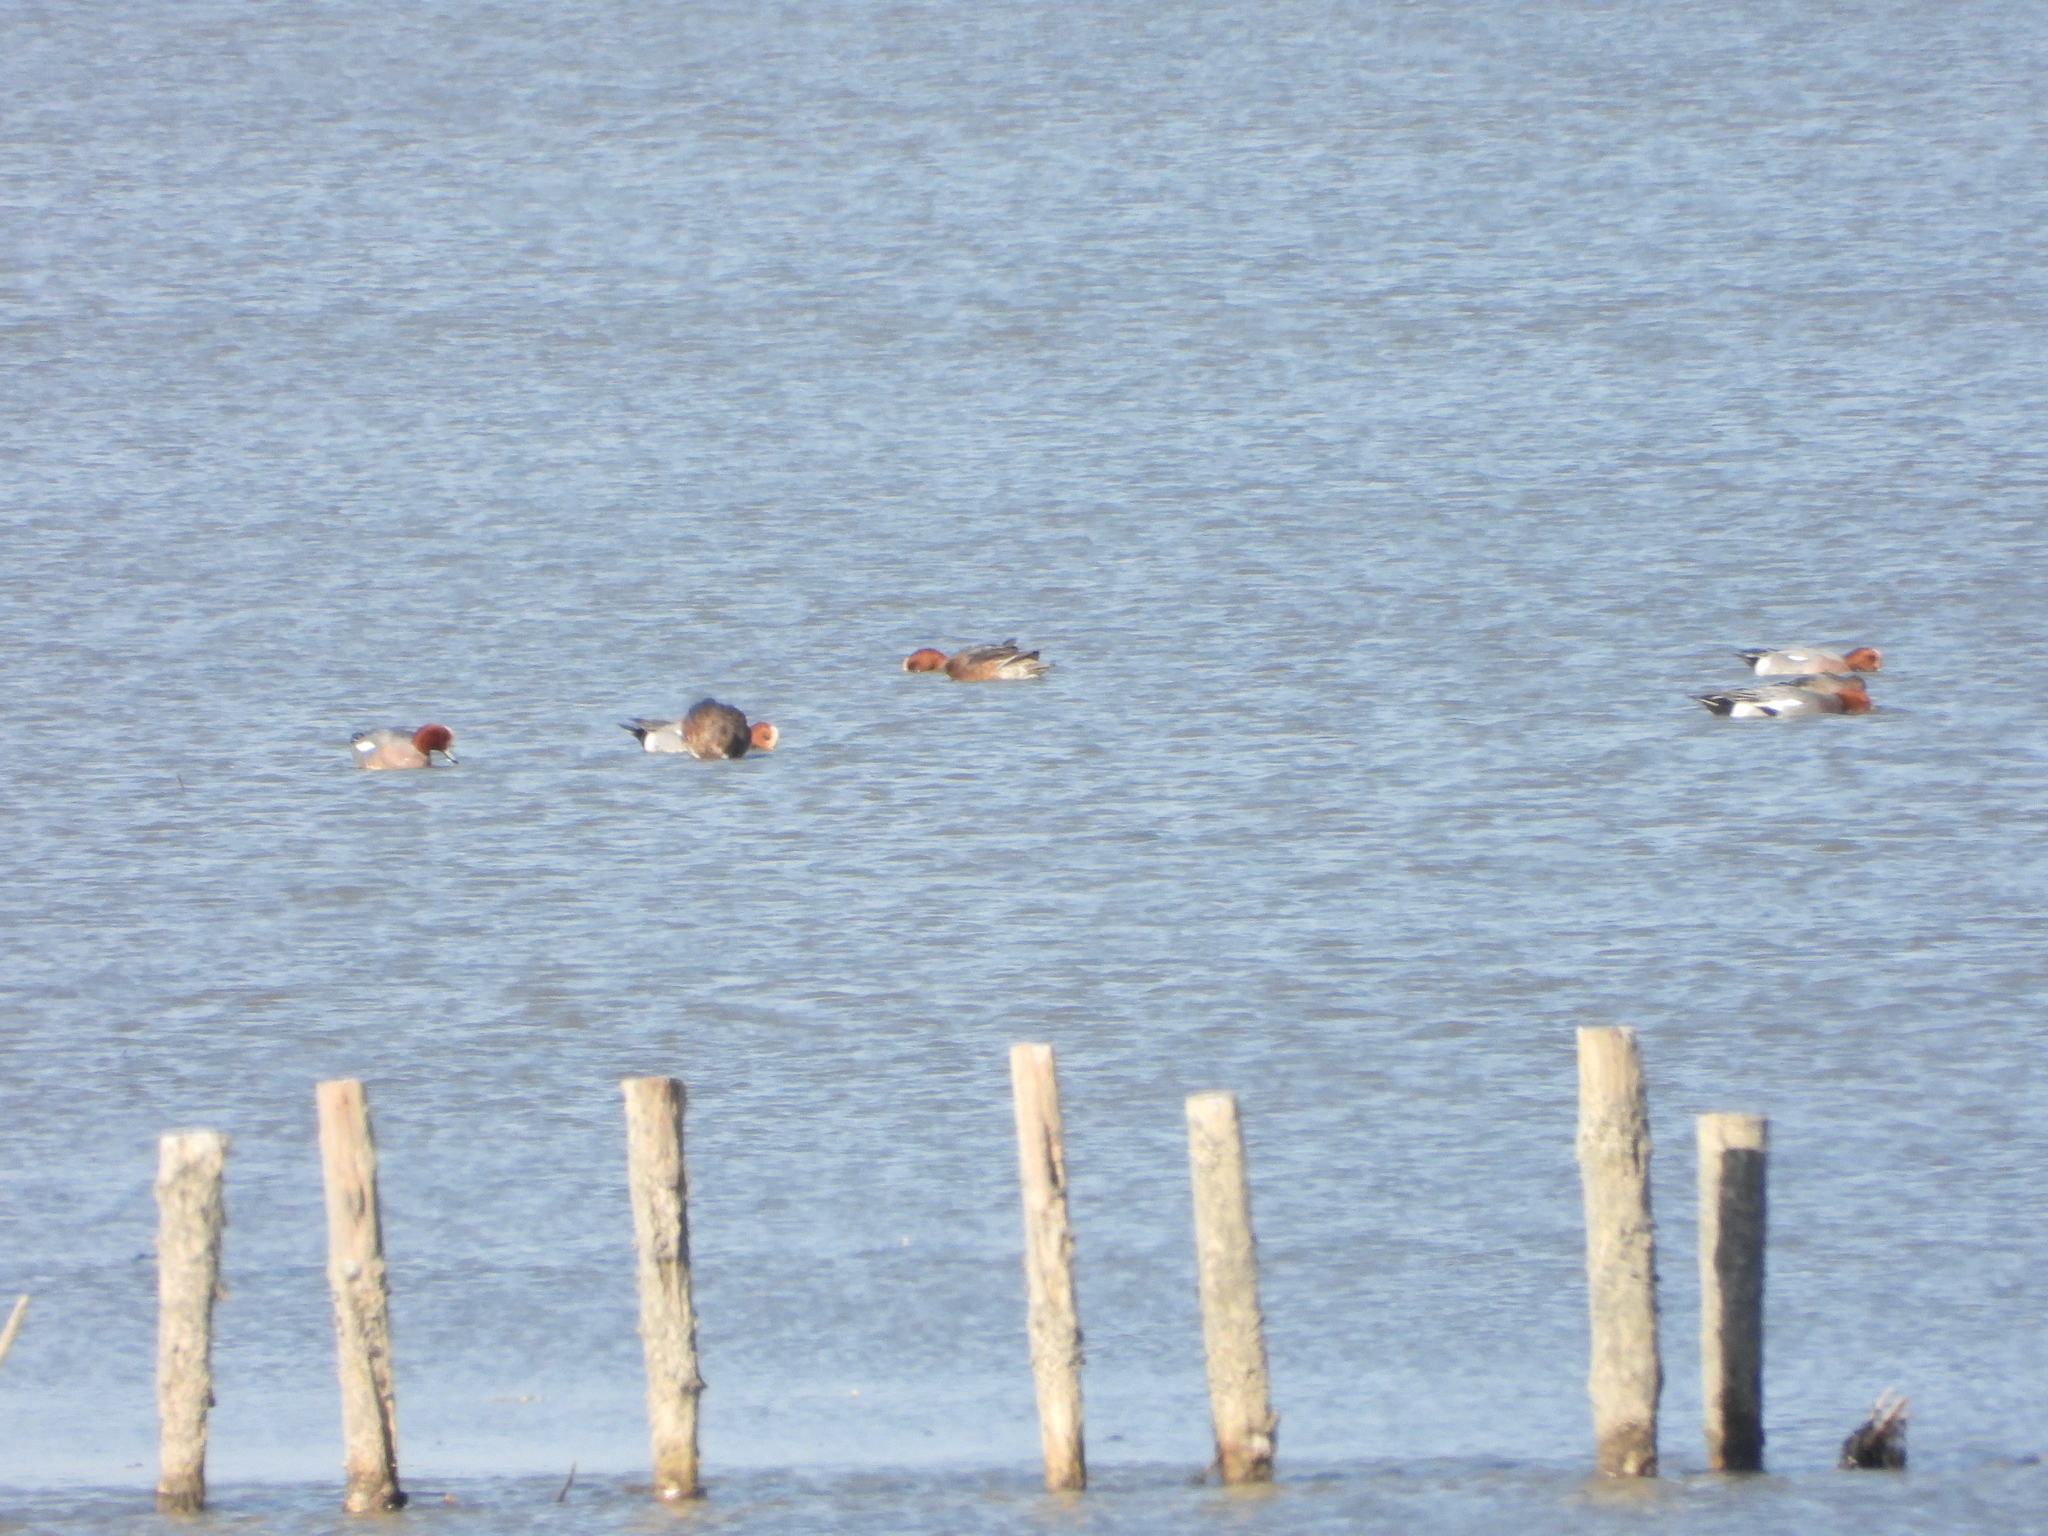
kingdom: Animalia
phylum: Chordata
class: Aves
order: Anseriformes
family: Anatidae
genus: Mareca
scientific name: Mareca penelope
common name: Eurasian wigeon
